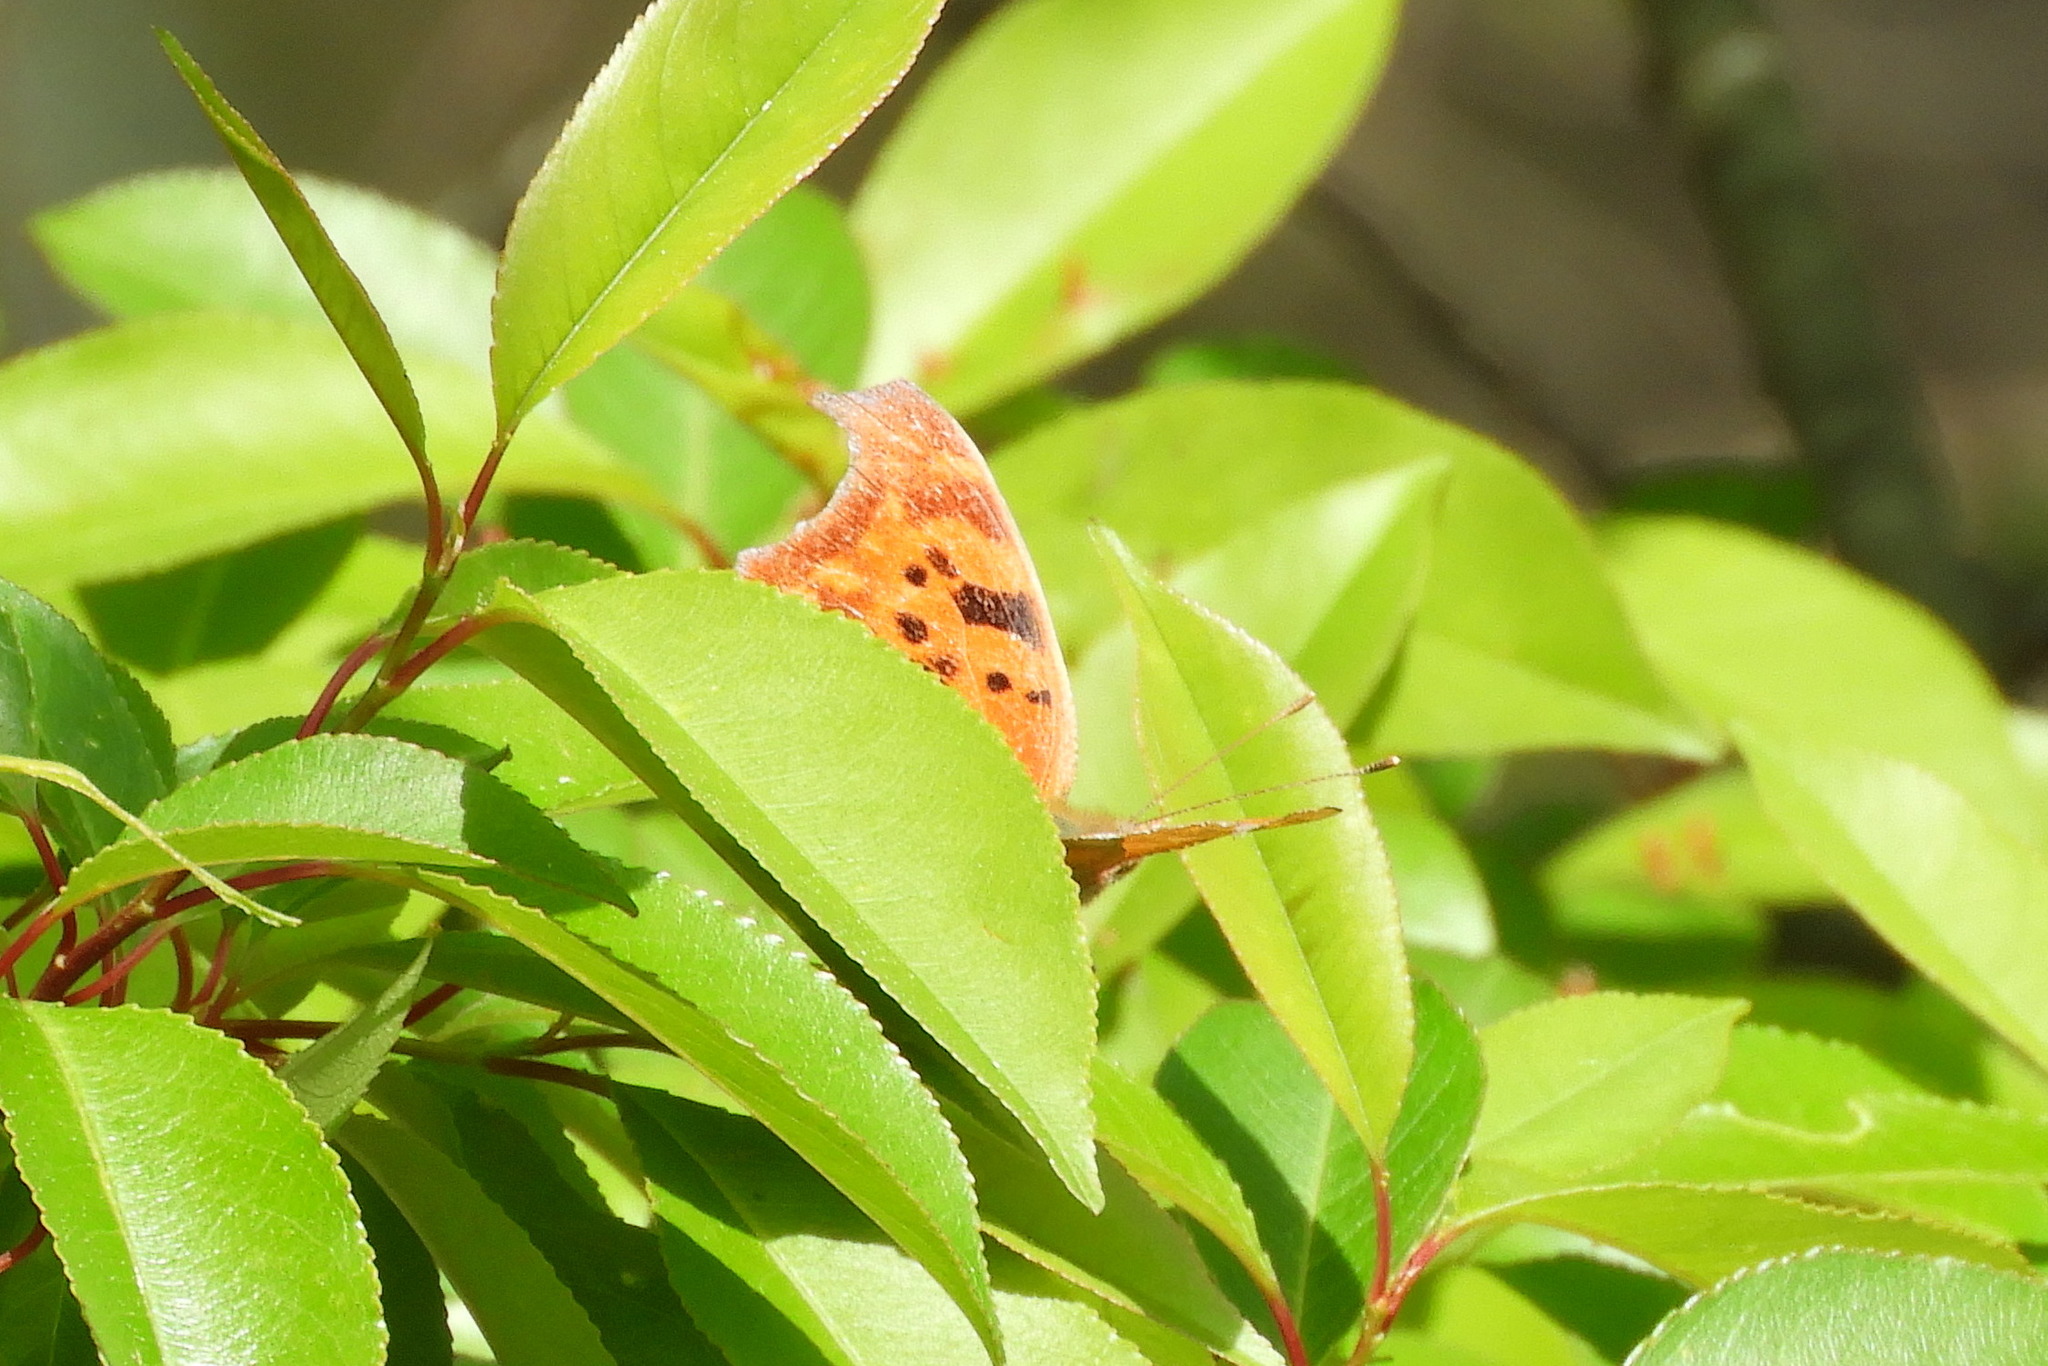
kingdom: Animalia
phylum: Arthropoda
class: Insecta
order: Lepidoptera
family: Nymphalidae
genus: Polygonia
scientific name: Polygonia interrogationis
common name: Question mark
